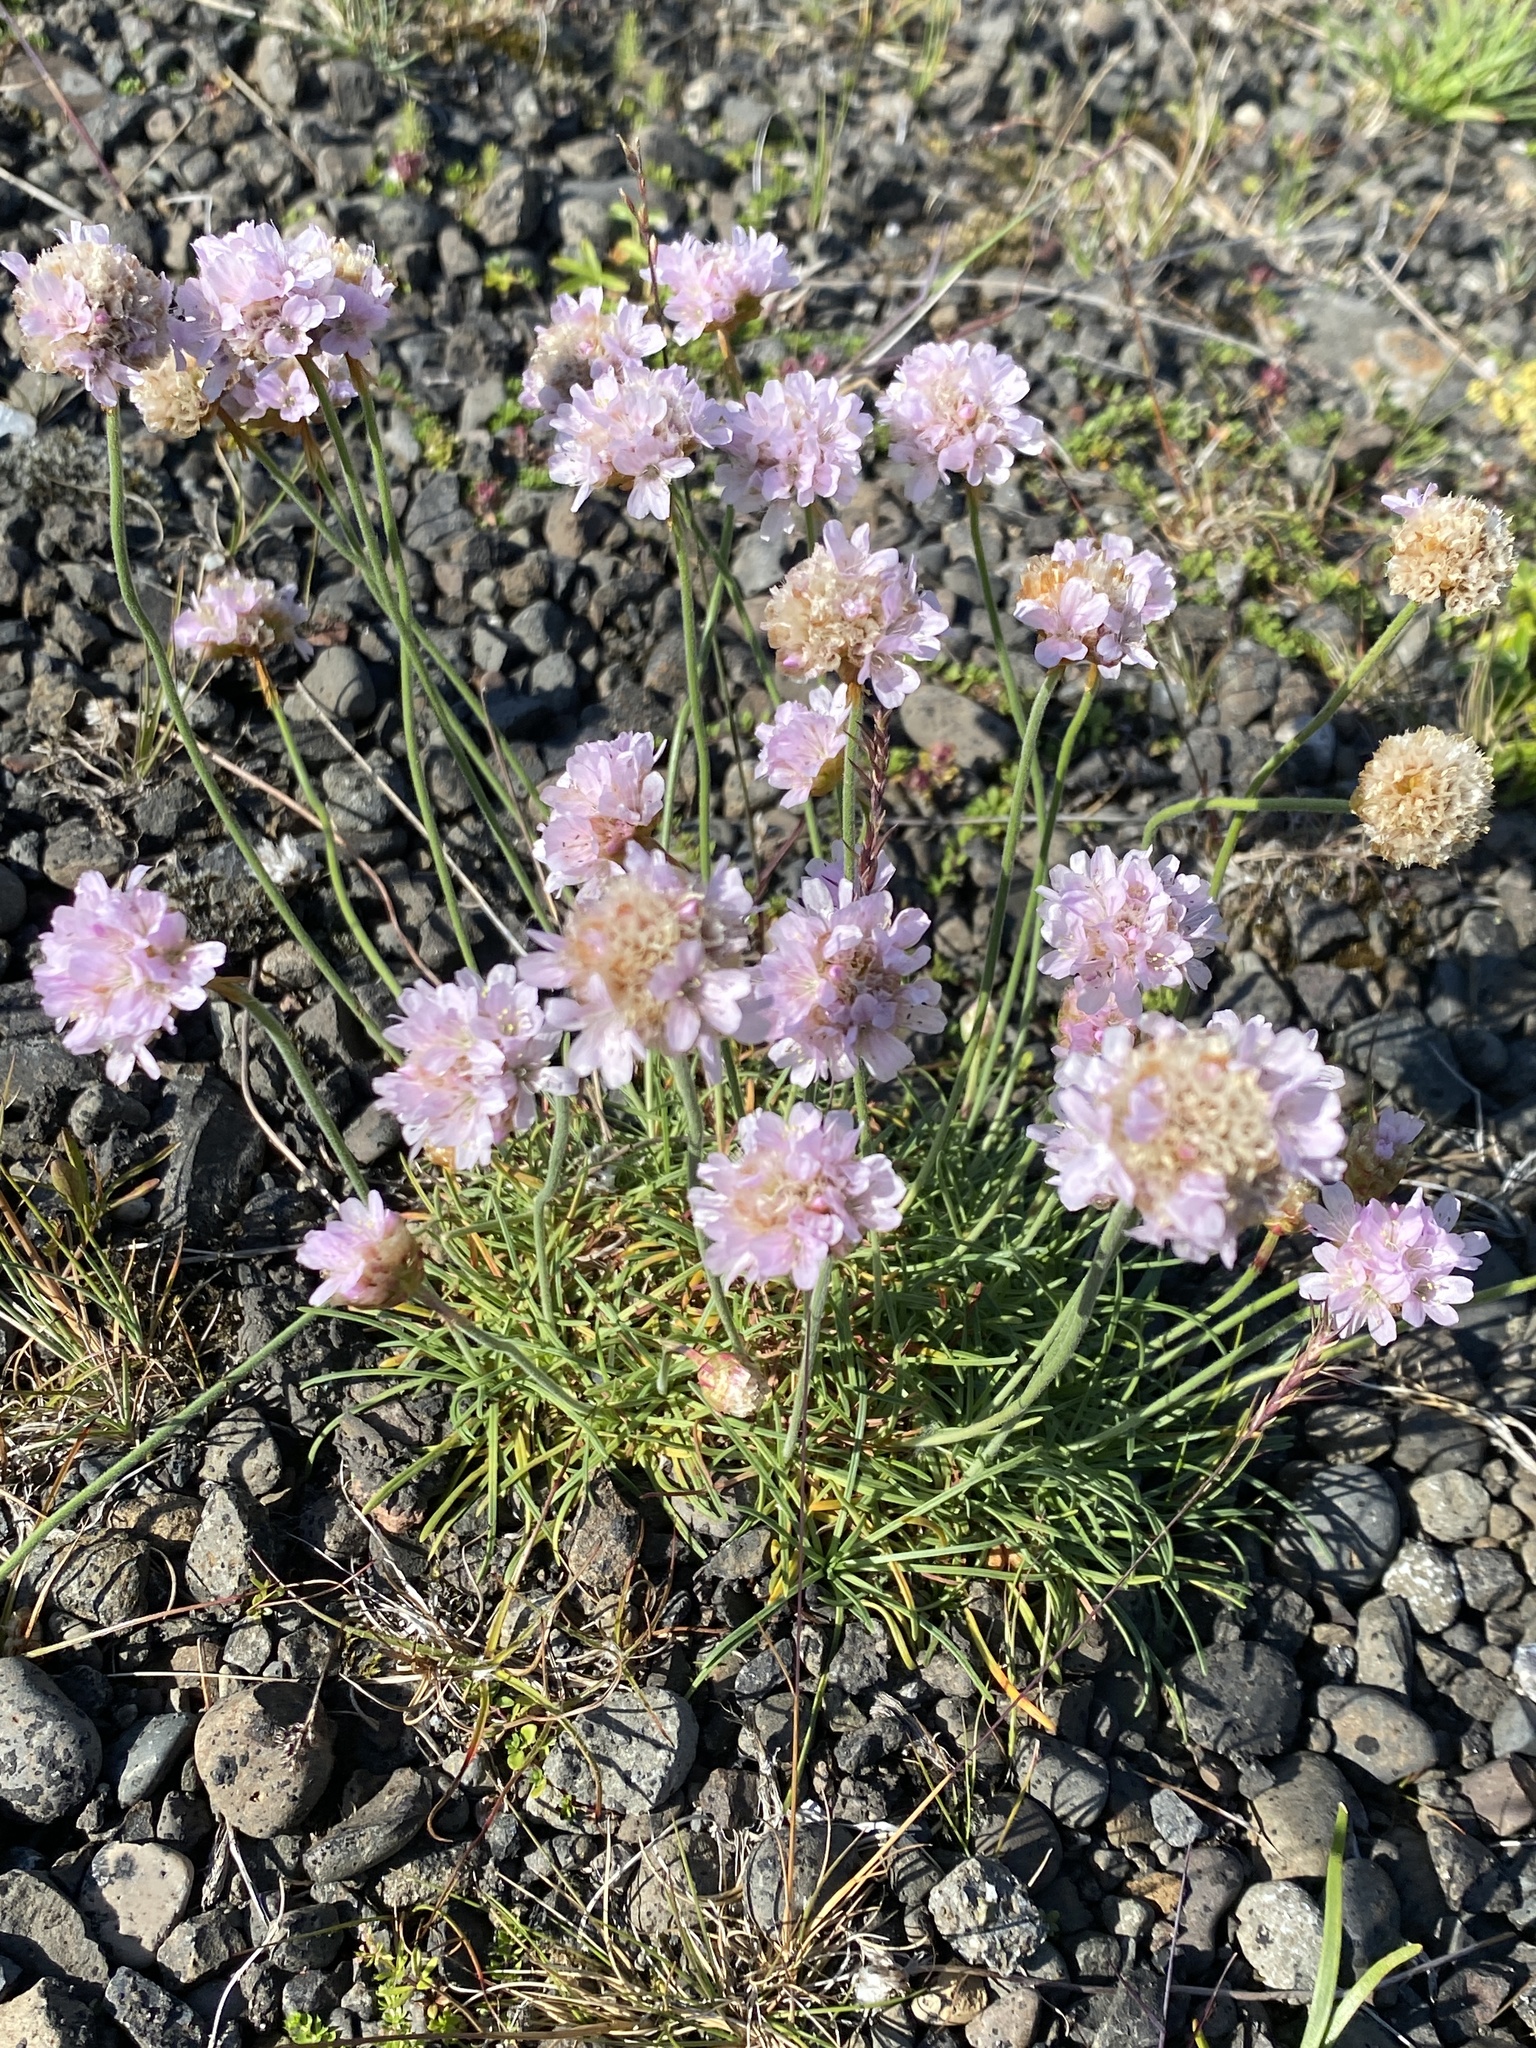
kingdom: Plantae
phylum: Tracheophyta
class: Magnoliopsida
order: Caryophyllales
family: Plumbaginaceae
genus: Armeria
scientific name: Armeria maritima
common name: Thrift
